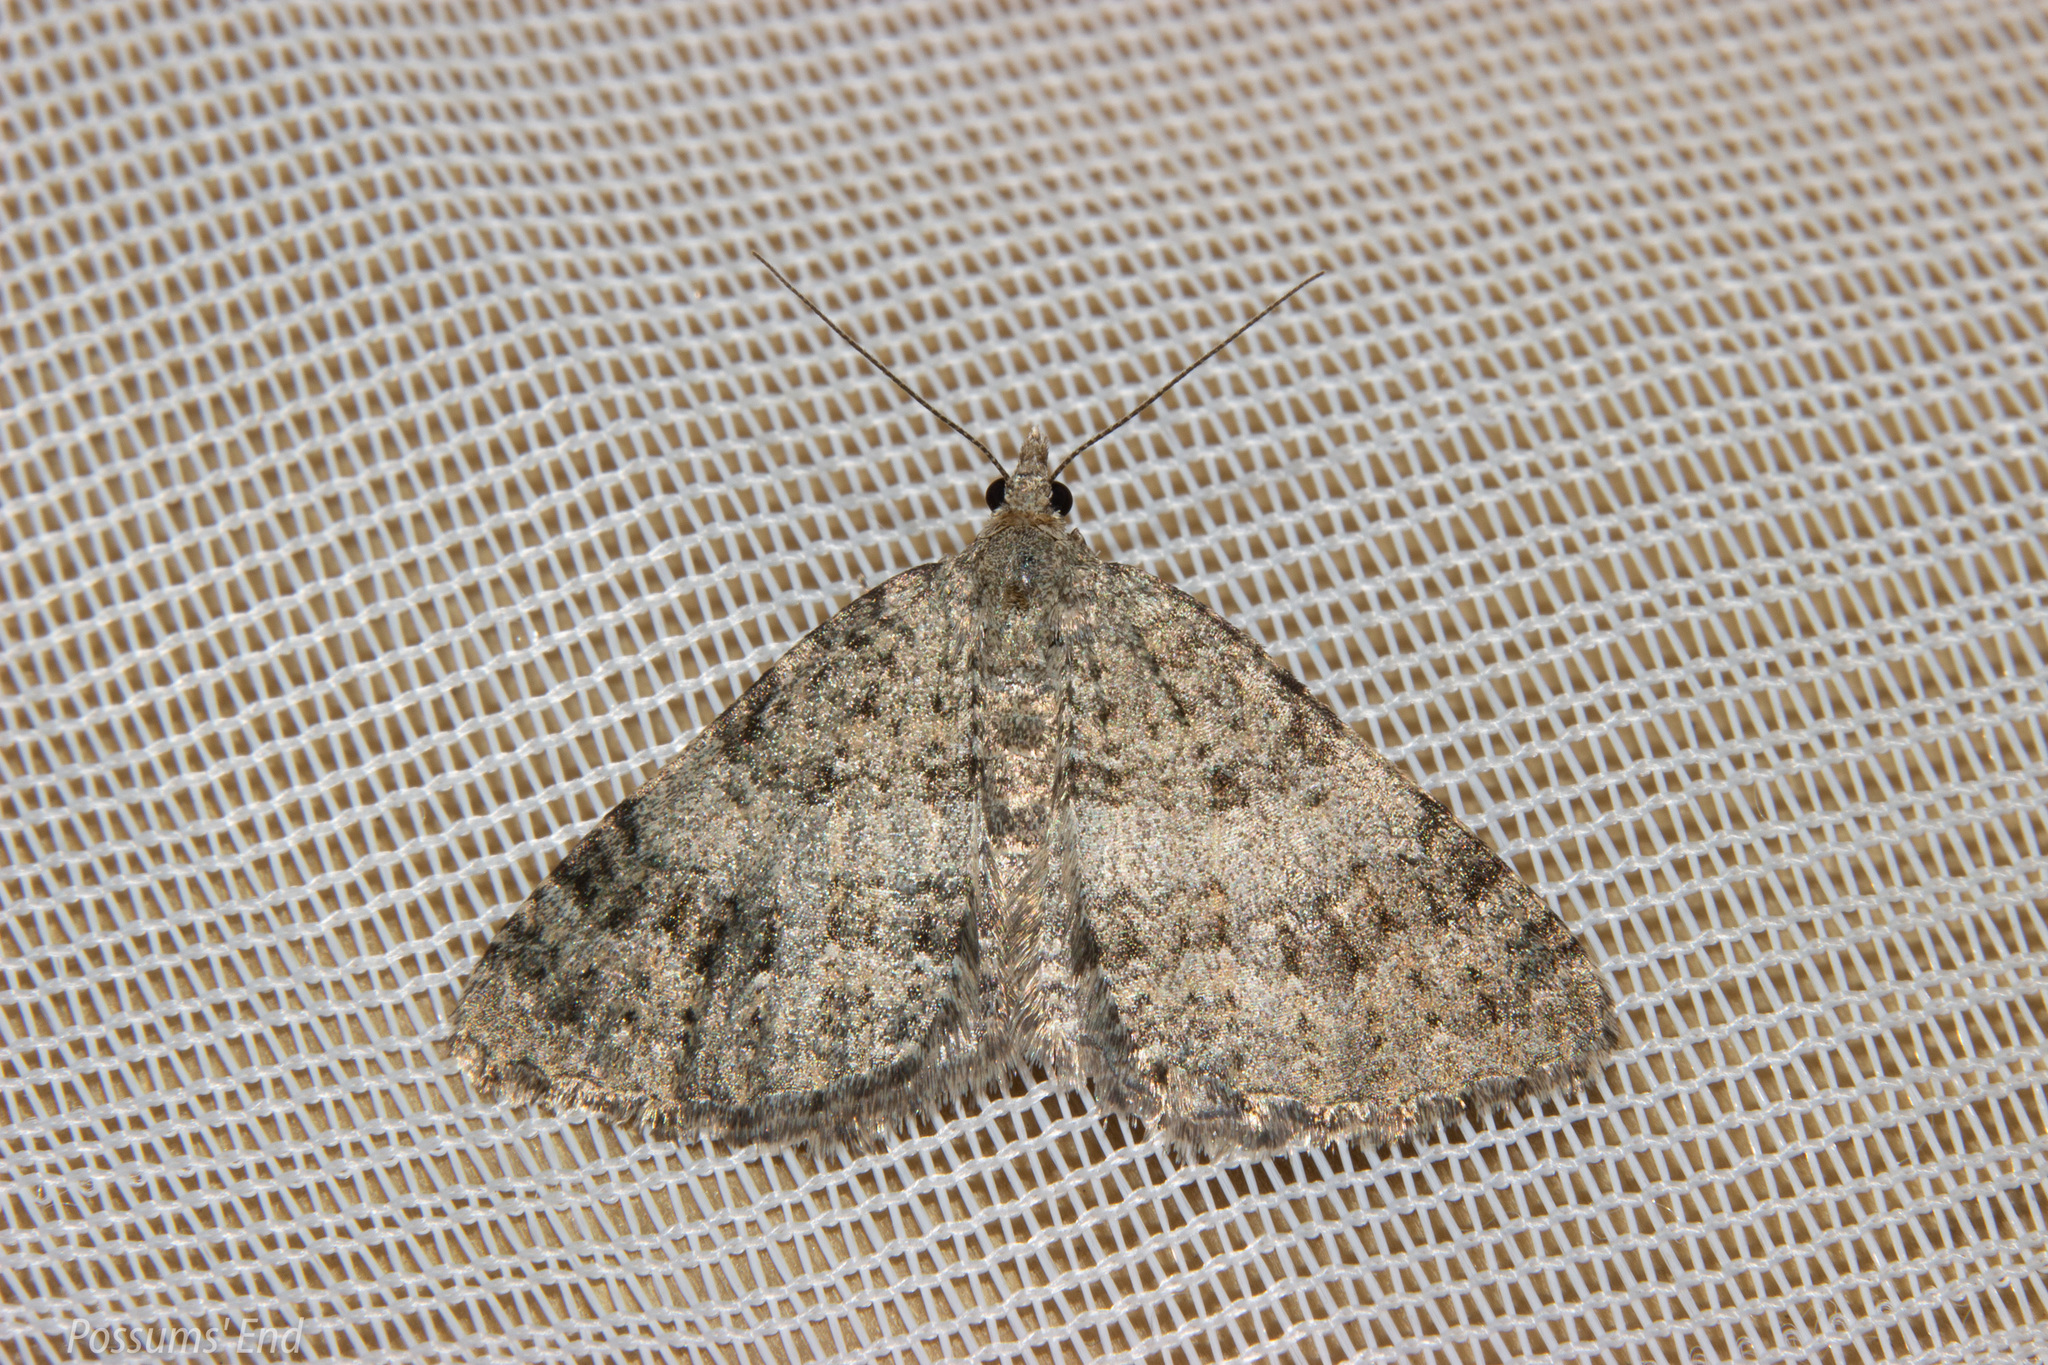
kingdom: Animalia
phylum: Arthropoda
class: Insecta
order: Lepidoptera
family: Geometridae
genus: Helastia
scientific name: Helastia corcularia
